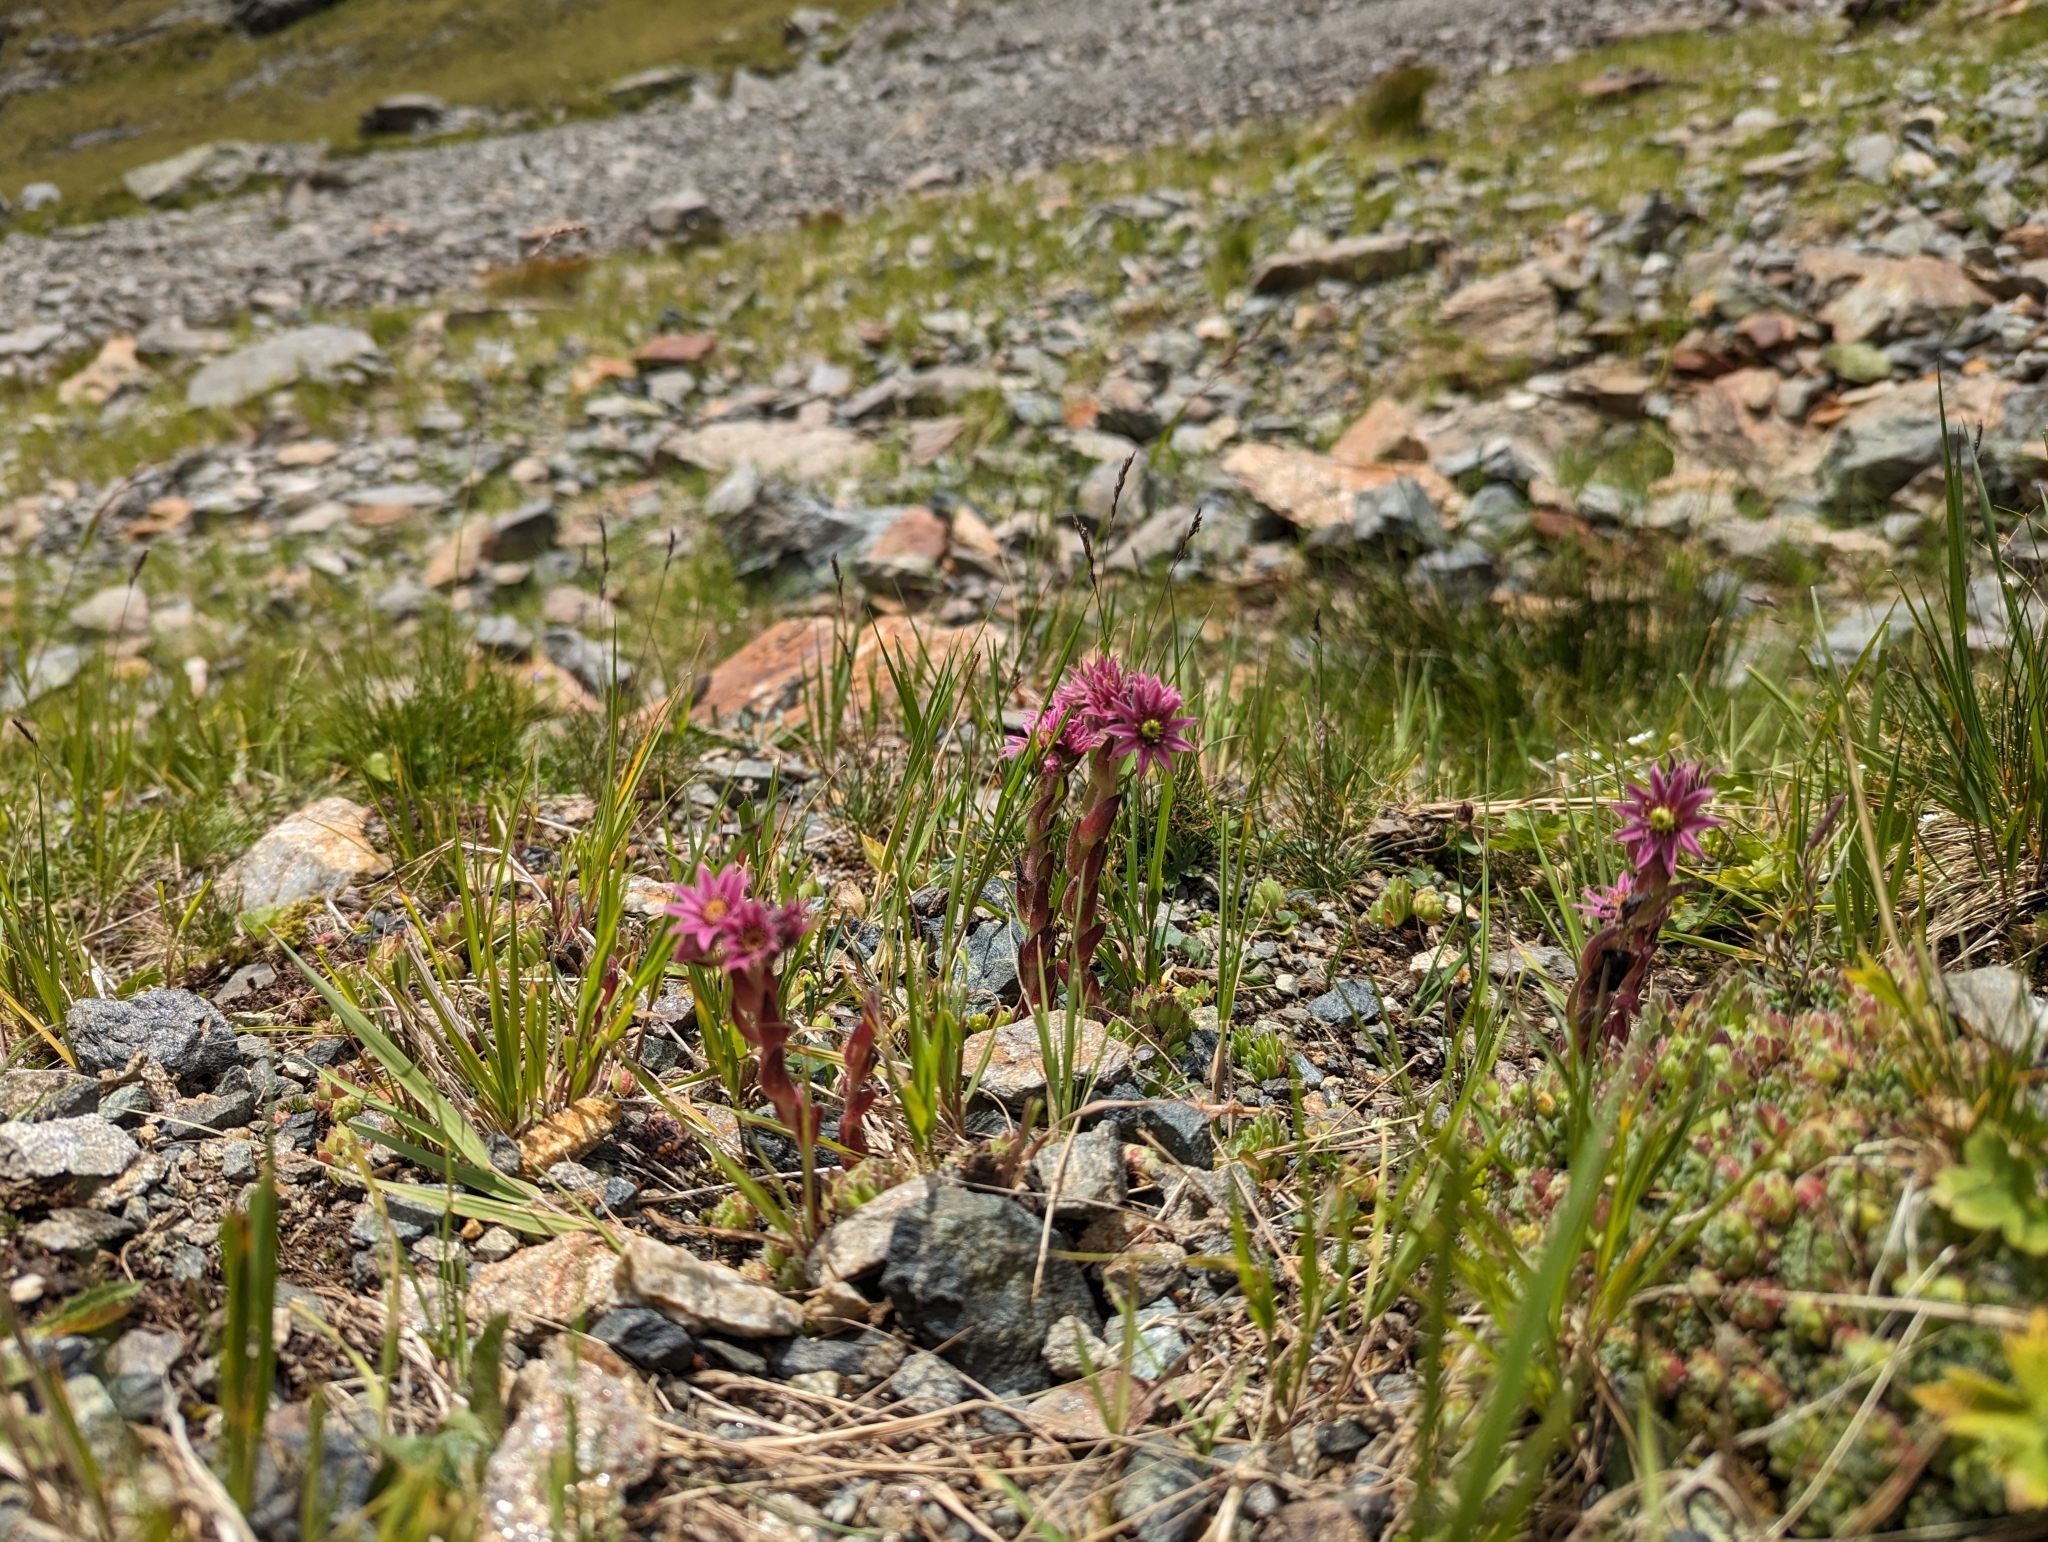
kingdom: Plantae
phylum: Tracheophyta
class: Magnoliopsida
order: Saxifragales
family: Crassulaceae
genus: Sempervivum
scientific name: Sempervivum montanum
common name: Mountain house-leek
